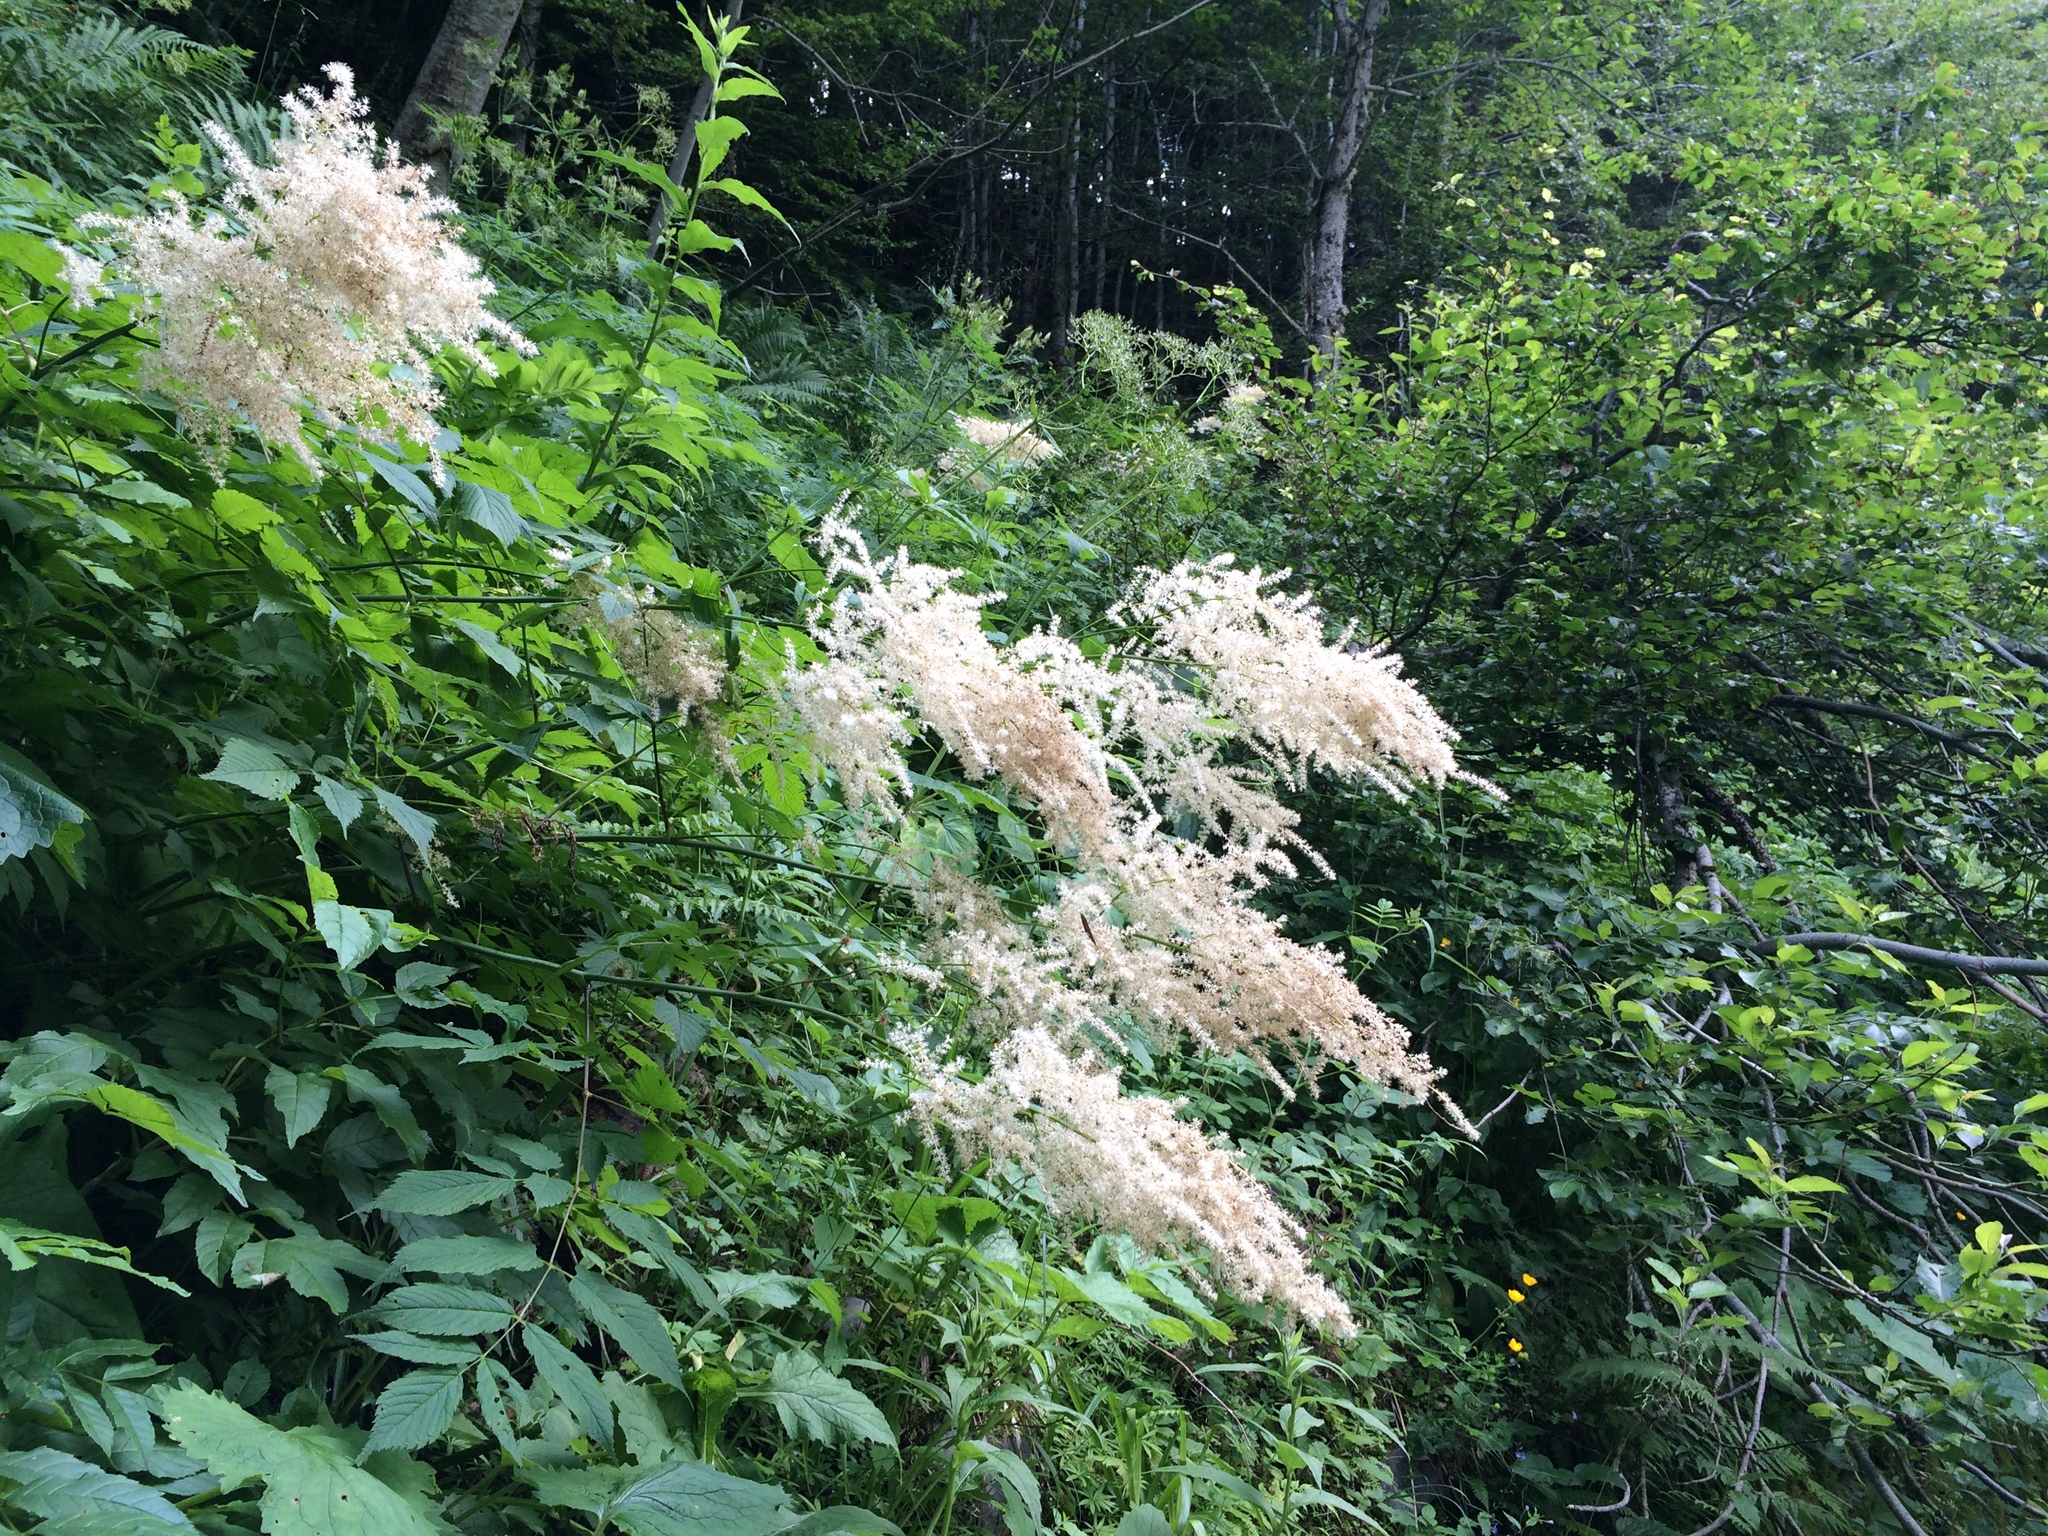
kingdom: Plantae
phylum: Tracheophyta
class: Magnoliopsida
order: Rosales
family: Rosaceae
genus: Aruncus
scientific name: Aruncus dioicus
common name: Buck's-beard
